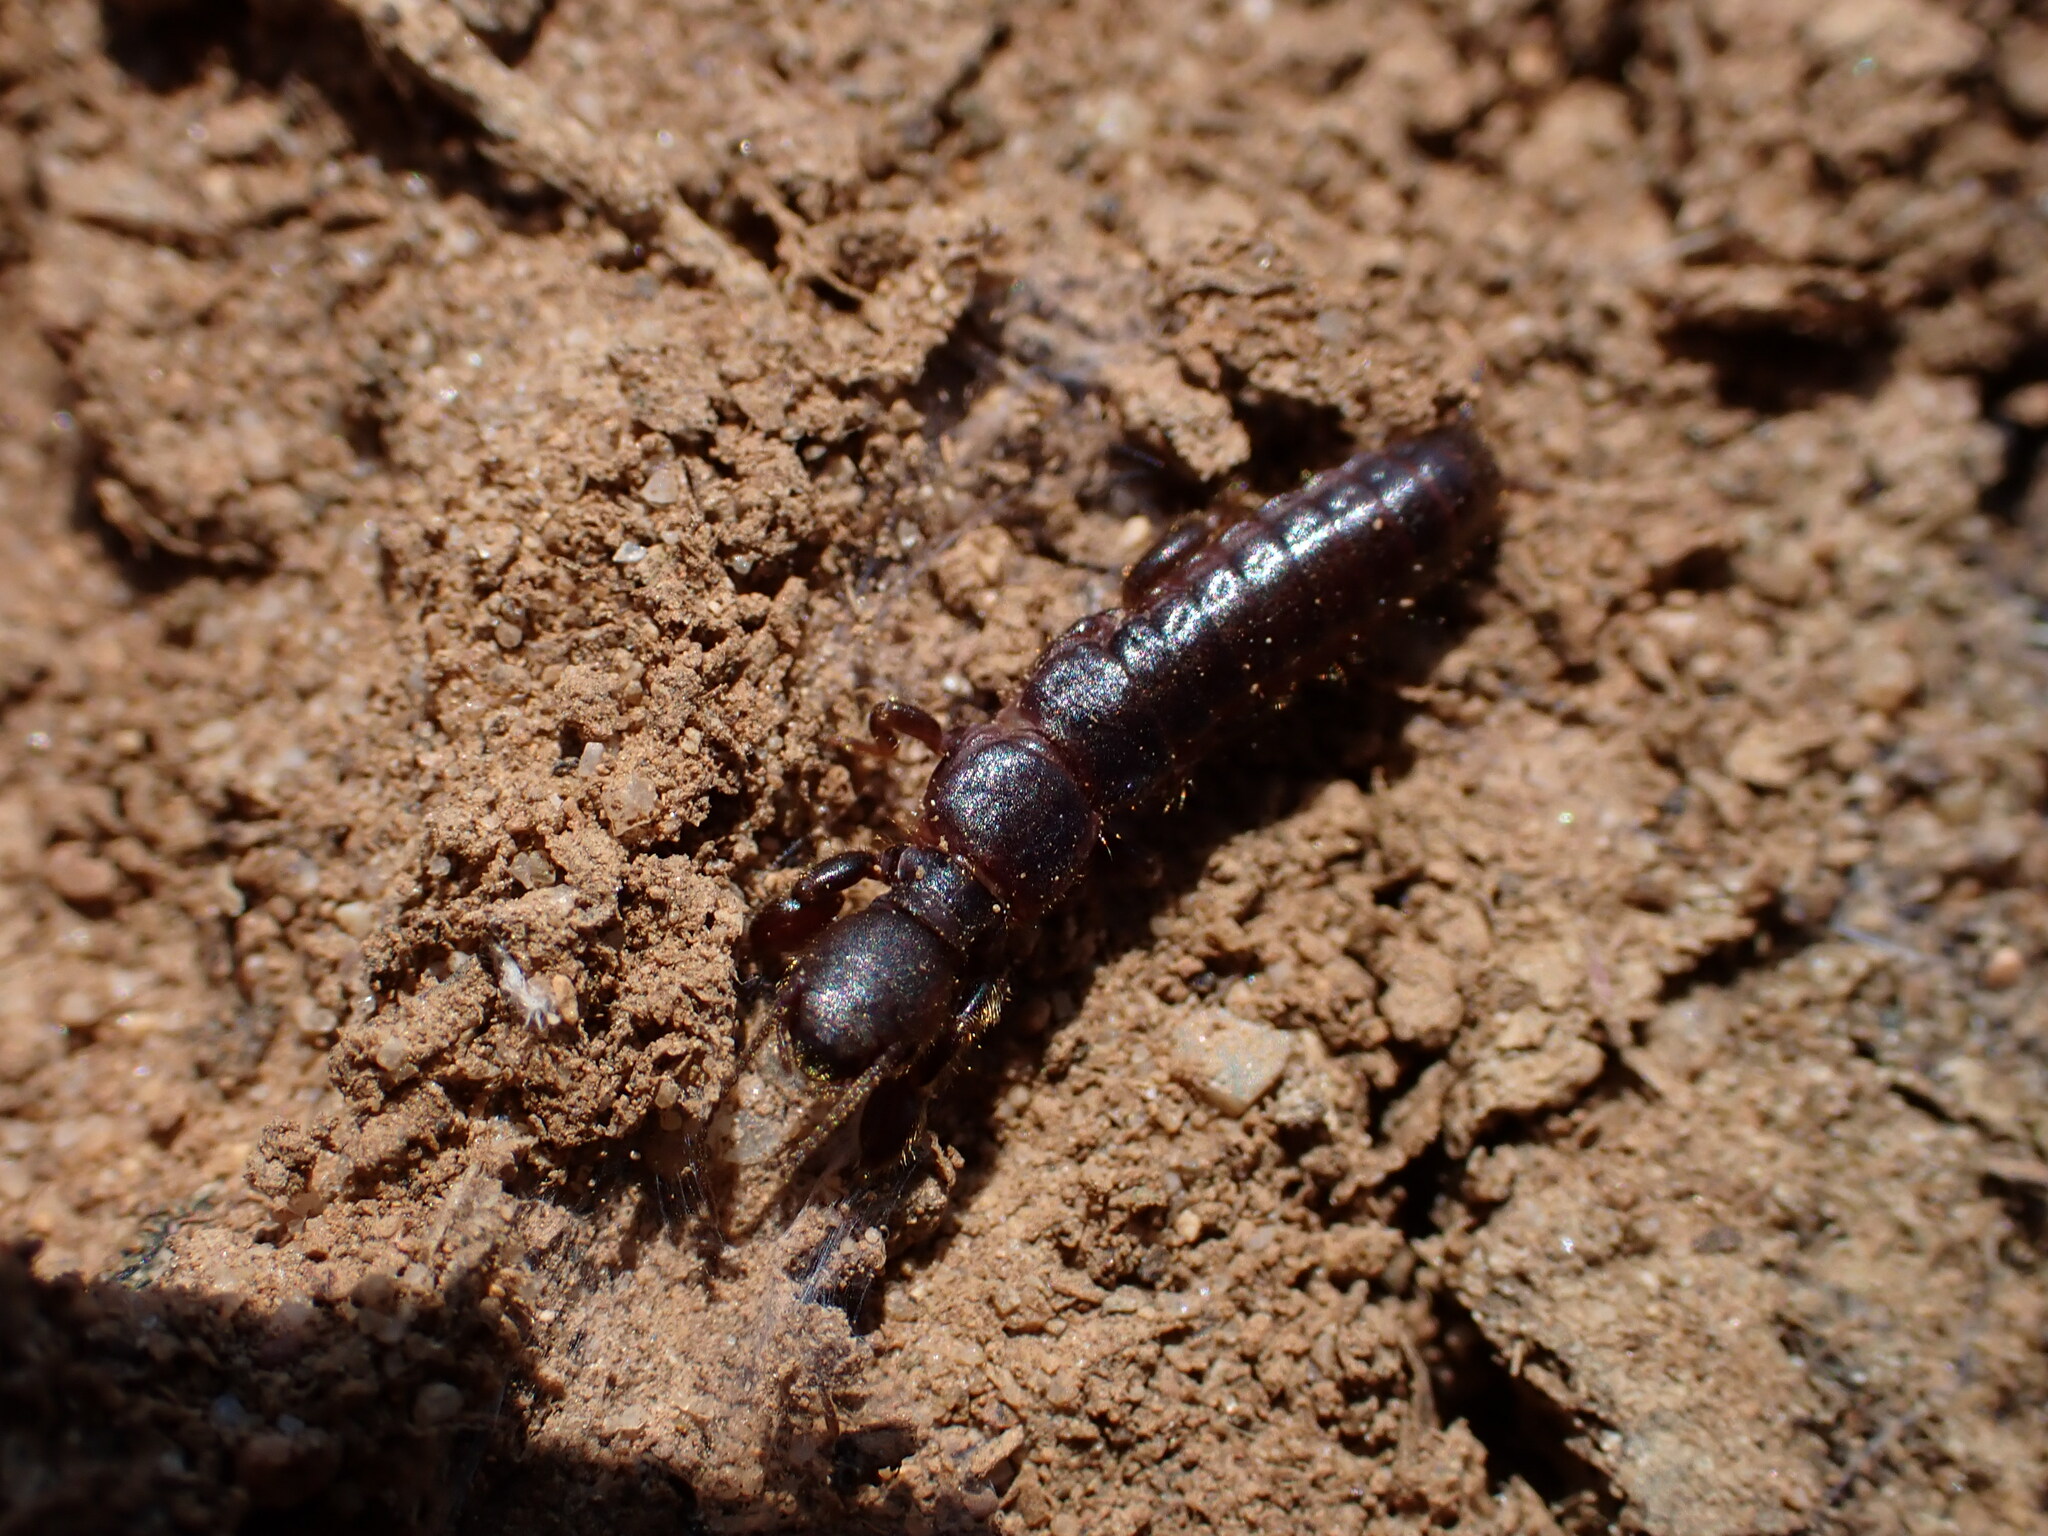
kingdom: Animalia
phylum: Arthropoda
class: Insecta
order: Embioptera
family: Embiidae
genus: Embia
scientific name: Embia ramburi
